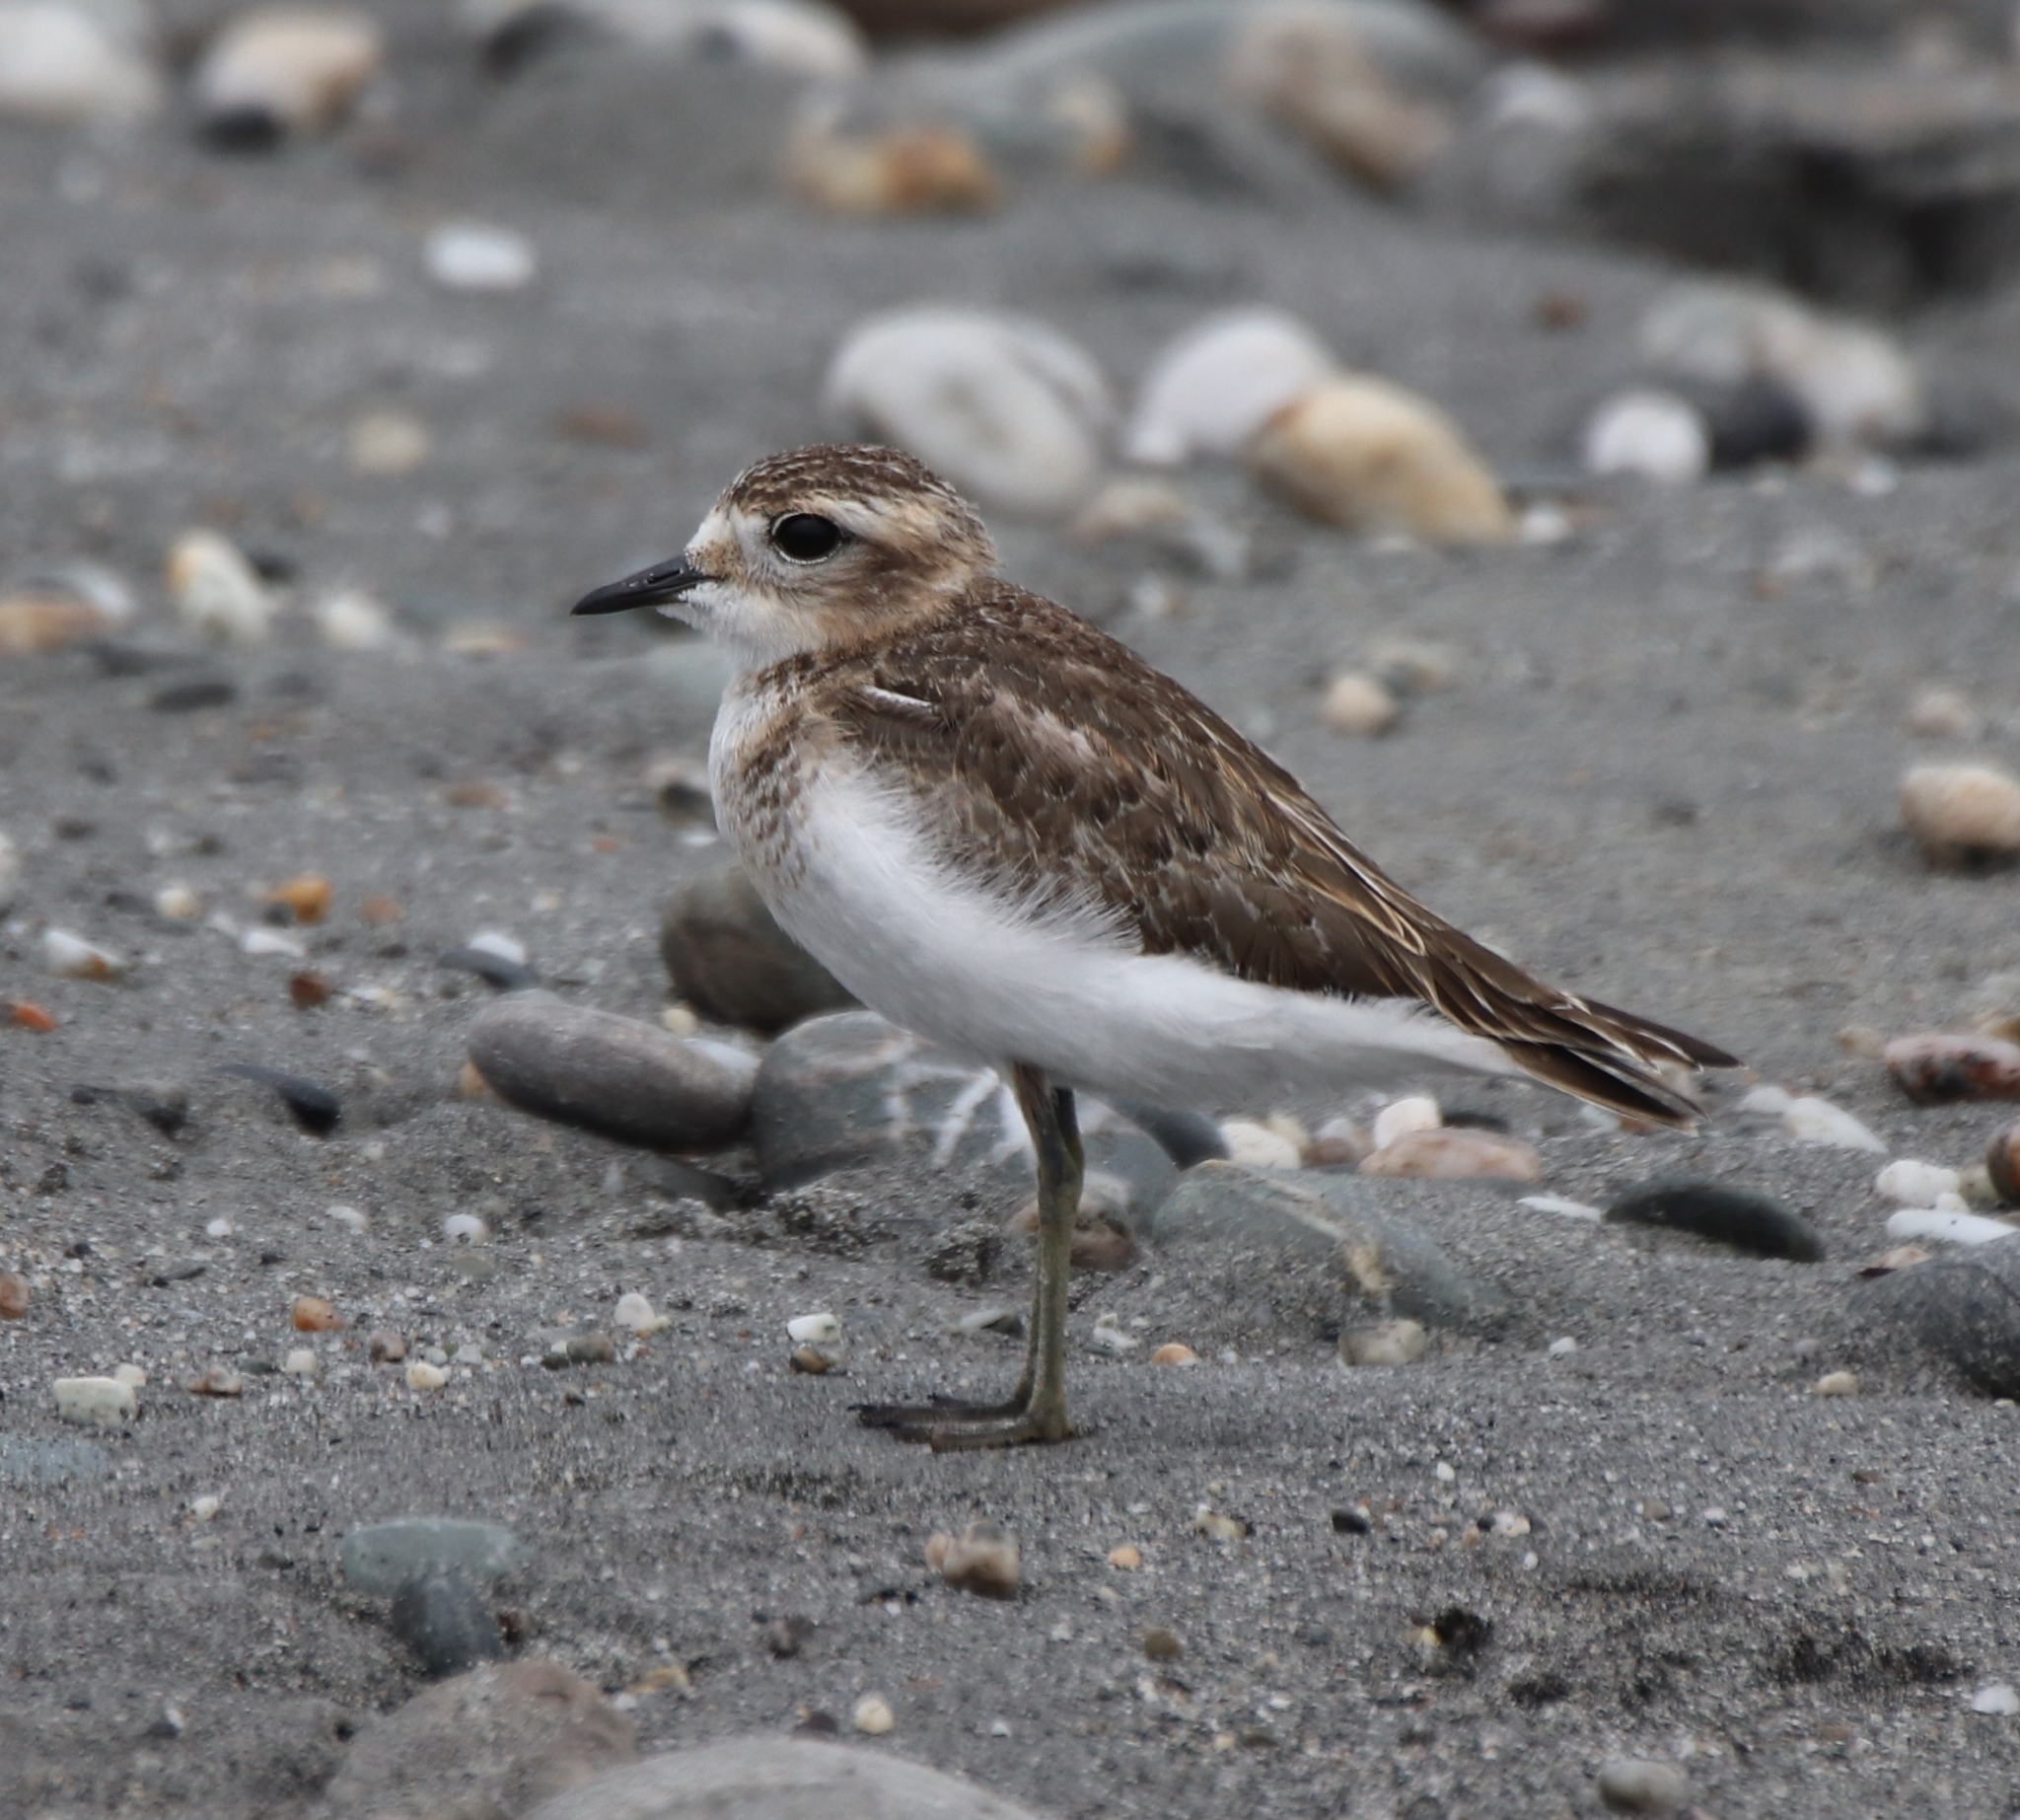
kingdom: Animalia
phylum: Chordata
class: Aves
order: Charadriiformes
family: Charadriidae
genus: Anarhynchus
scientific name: Anarhynchus
